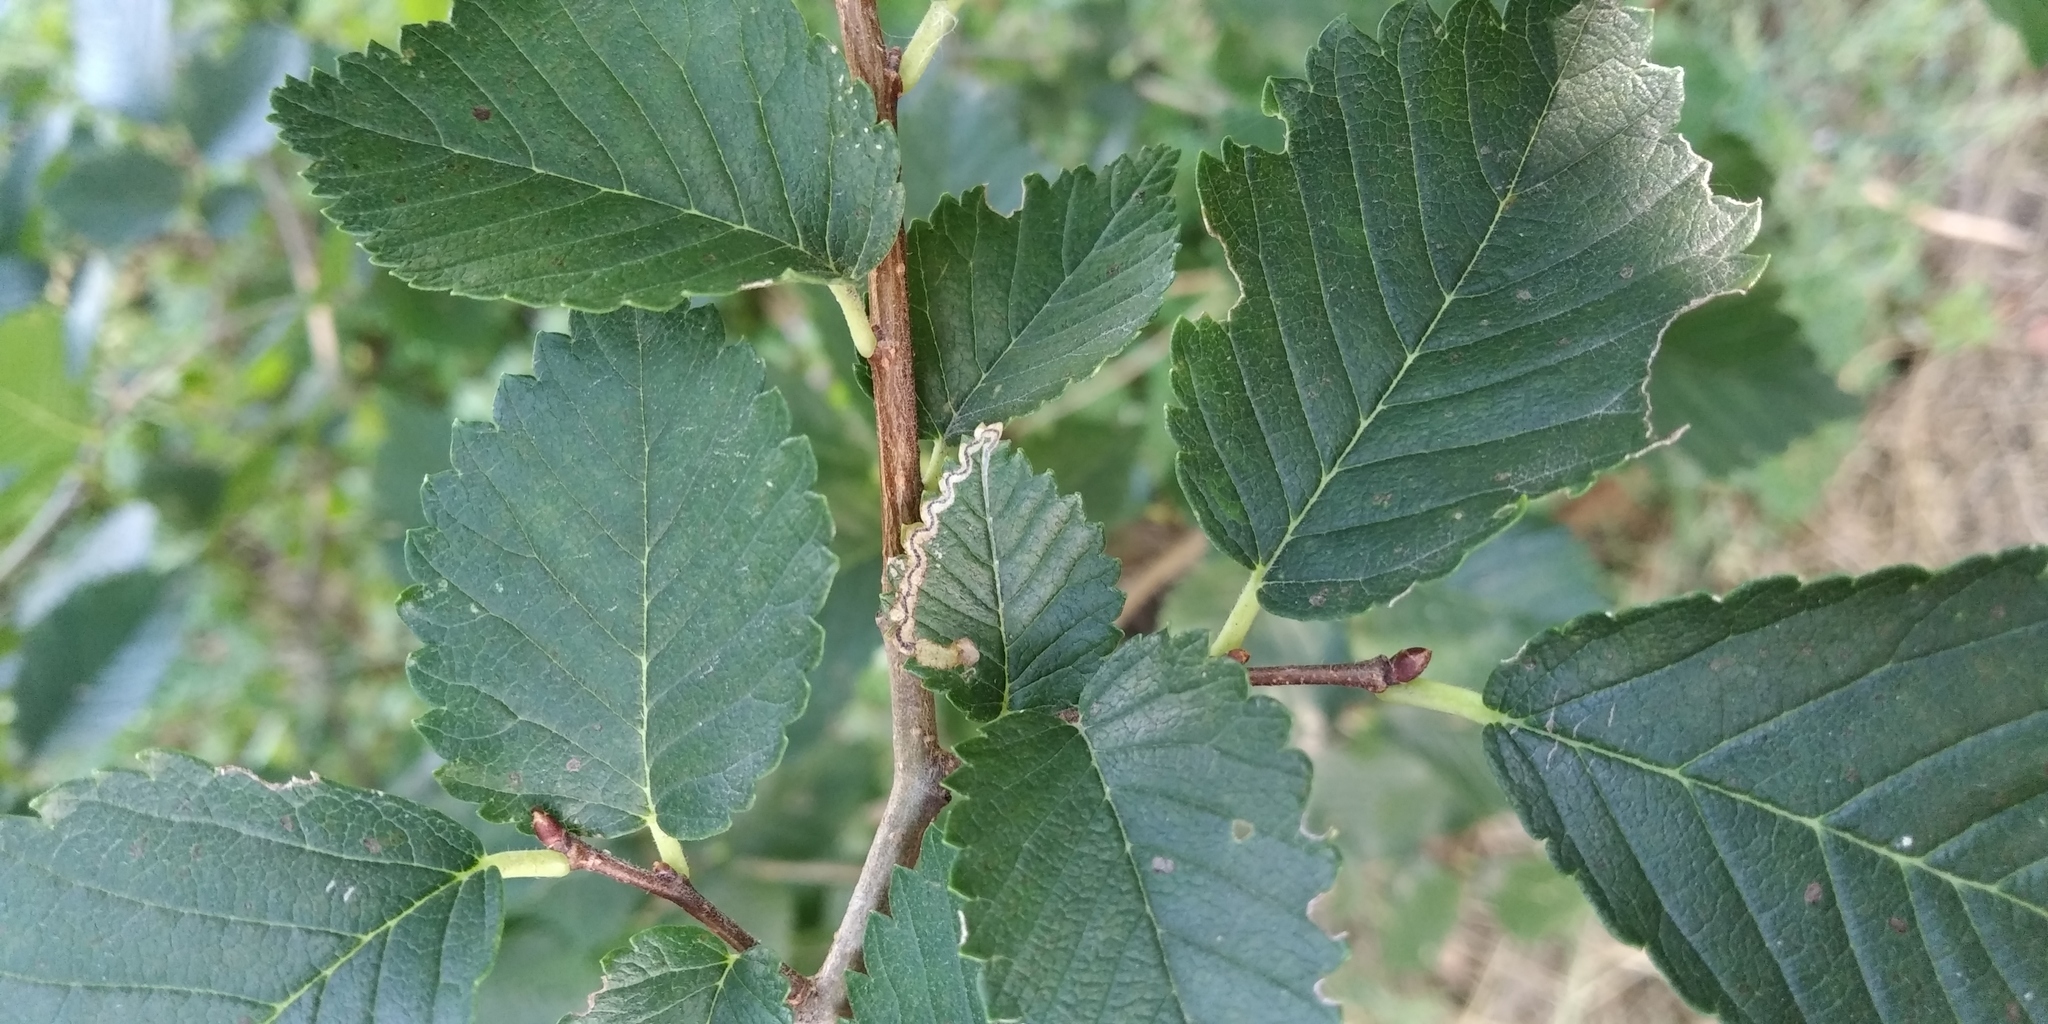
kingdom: Animalia
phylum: Arthropoda
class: Insecta
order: Lepidoptera
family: Nepticulidae
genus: Stigmella
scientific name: Stigmella ulmivora
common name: Barred elm pigmy
